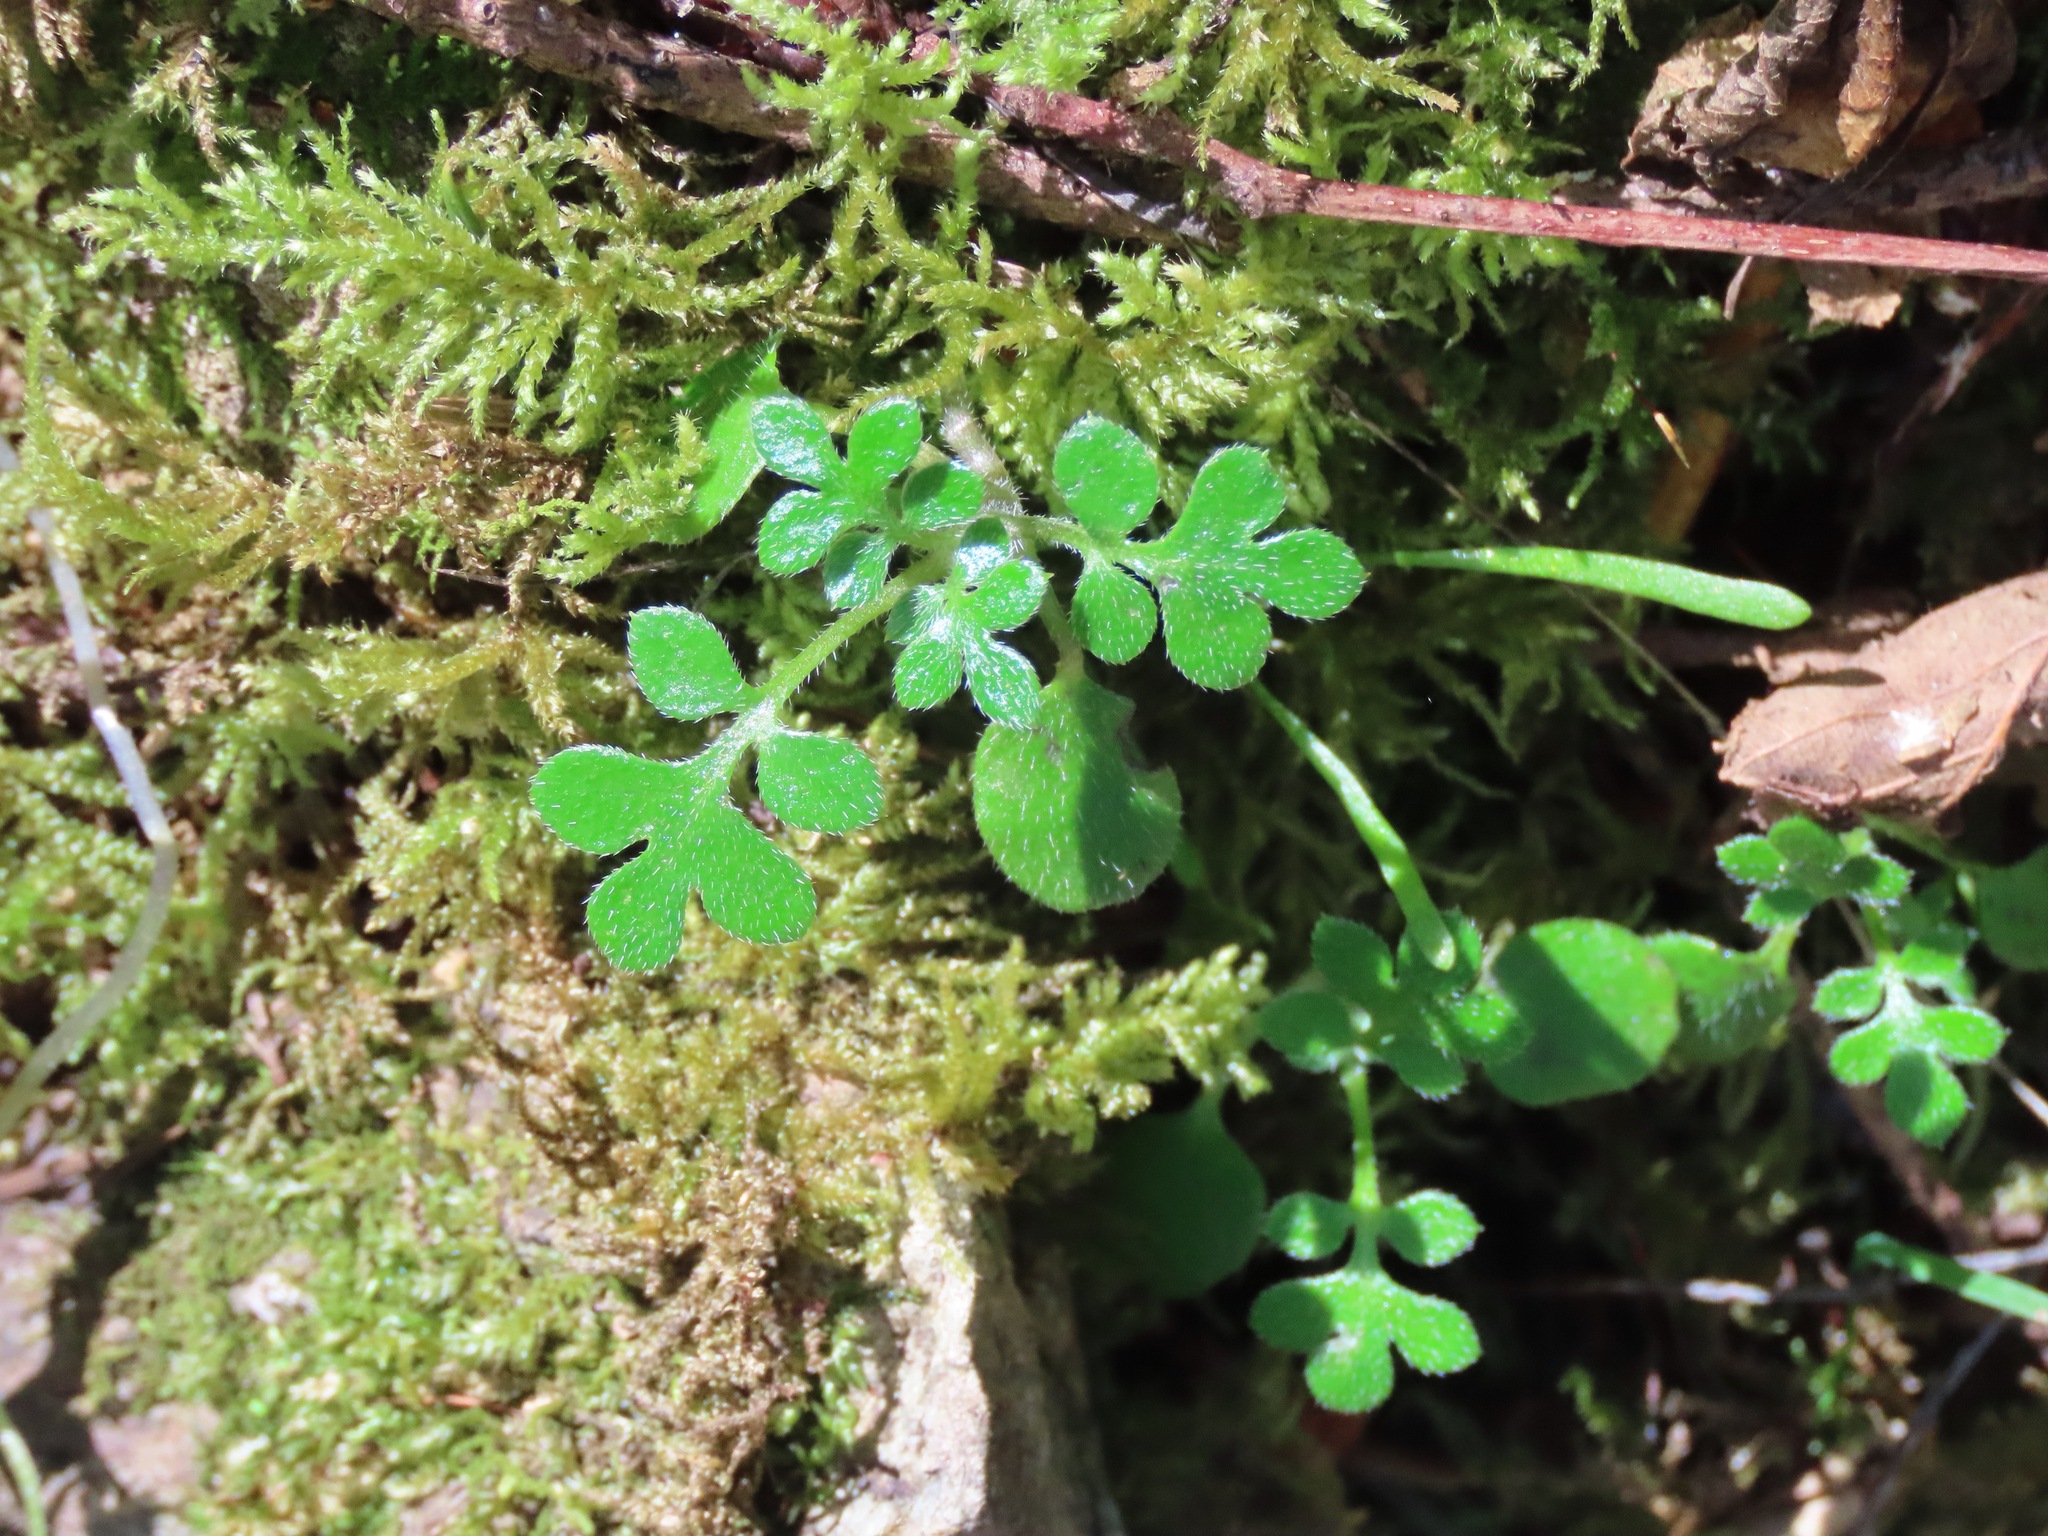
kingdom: Plantae
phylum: Tracheophyta
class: Magnoliopsida
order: Boraginales
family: Hydrophyllaceae
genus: Nemophila
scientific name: Nemophila parviflora
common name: Small-flowered baby-blue-eyes
